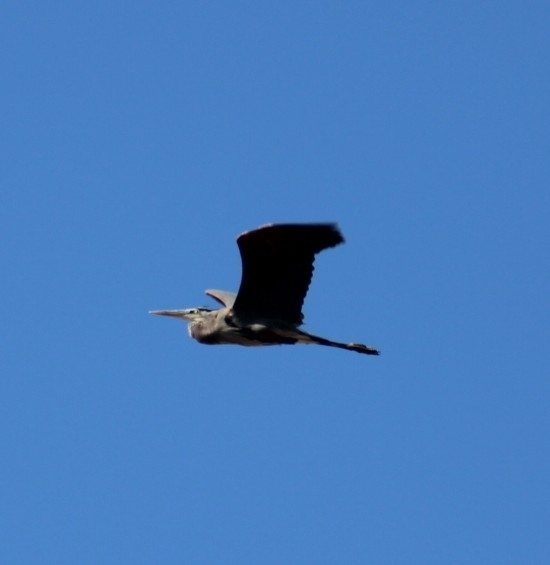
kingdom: Animalia
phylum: Chordata
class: Aves
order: Pelecaniformes
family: Ardeidae
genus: Ardea
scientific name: Ardea herodias
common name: Great blue heron
